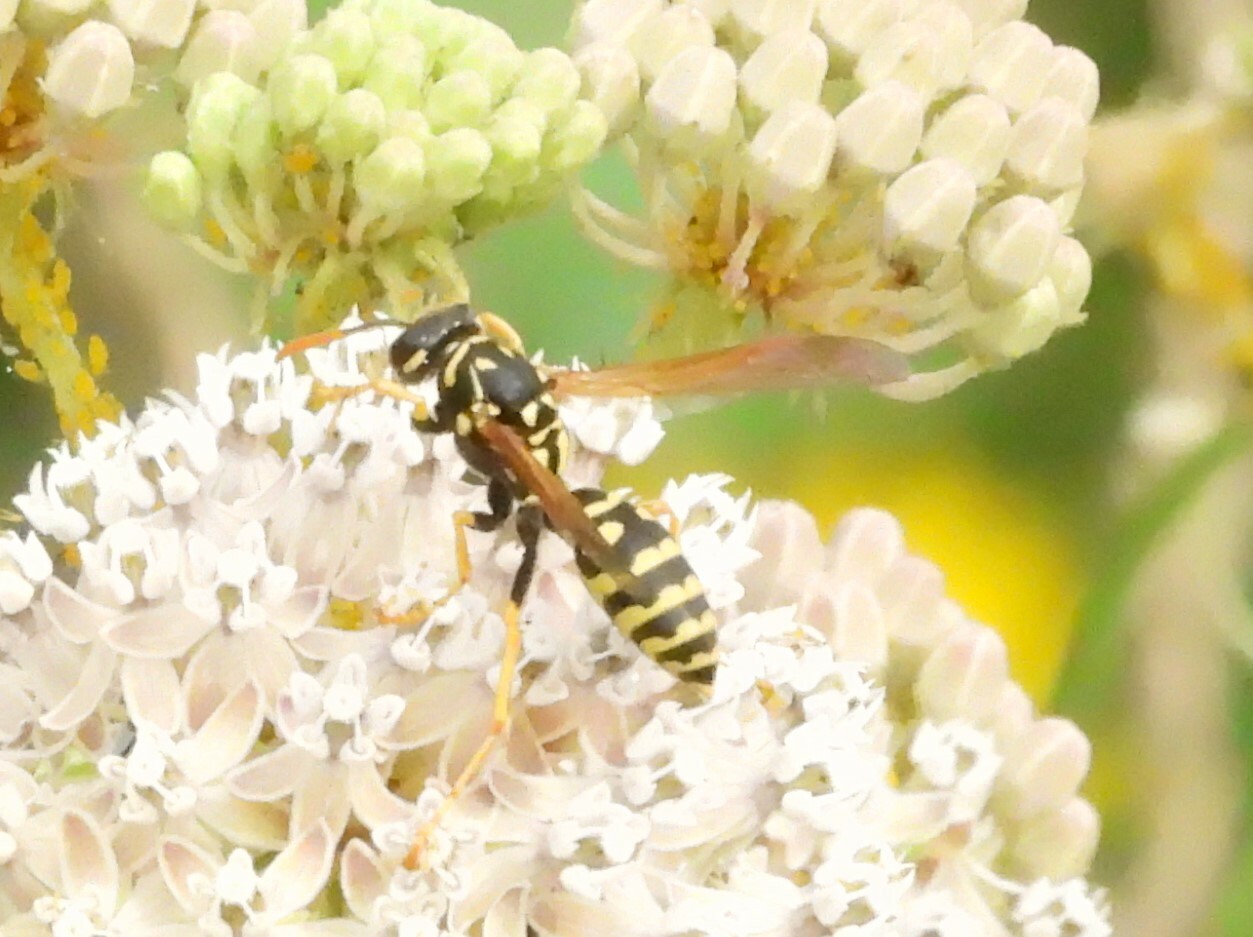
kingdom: Animalia
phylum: Arthropoda
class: Insecta
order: Hymenoptera
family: Eumenidae
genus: Polistes
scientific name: Polistes dominula
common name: Paper wasp
